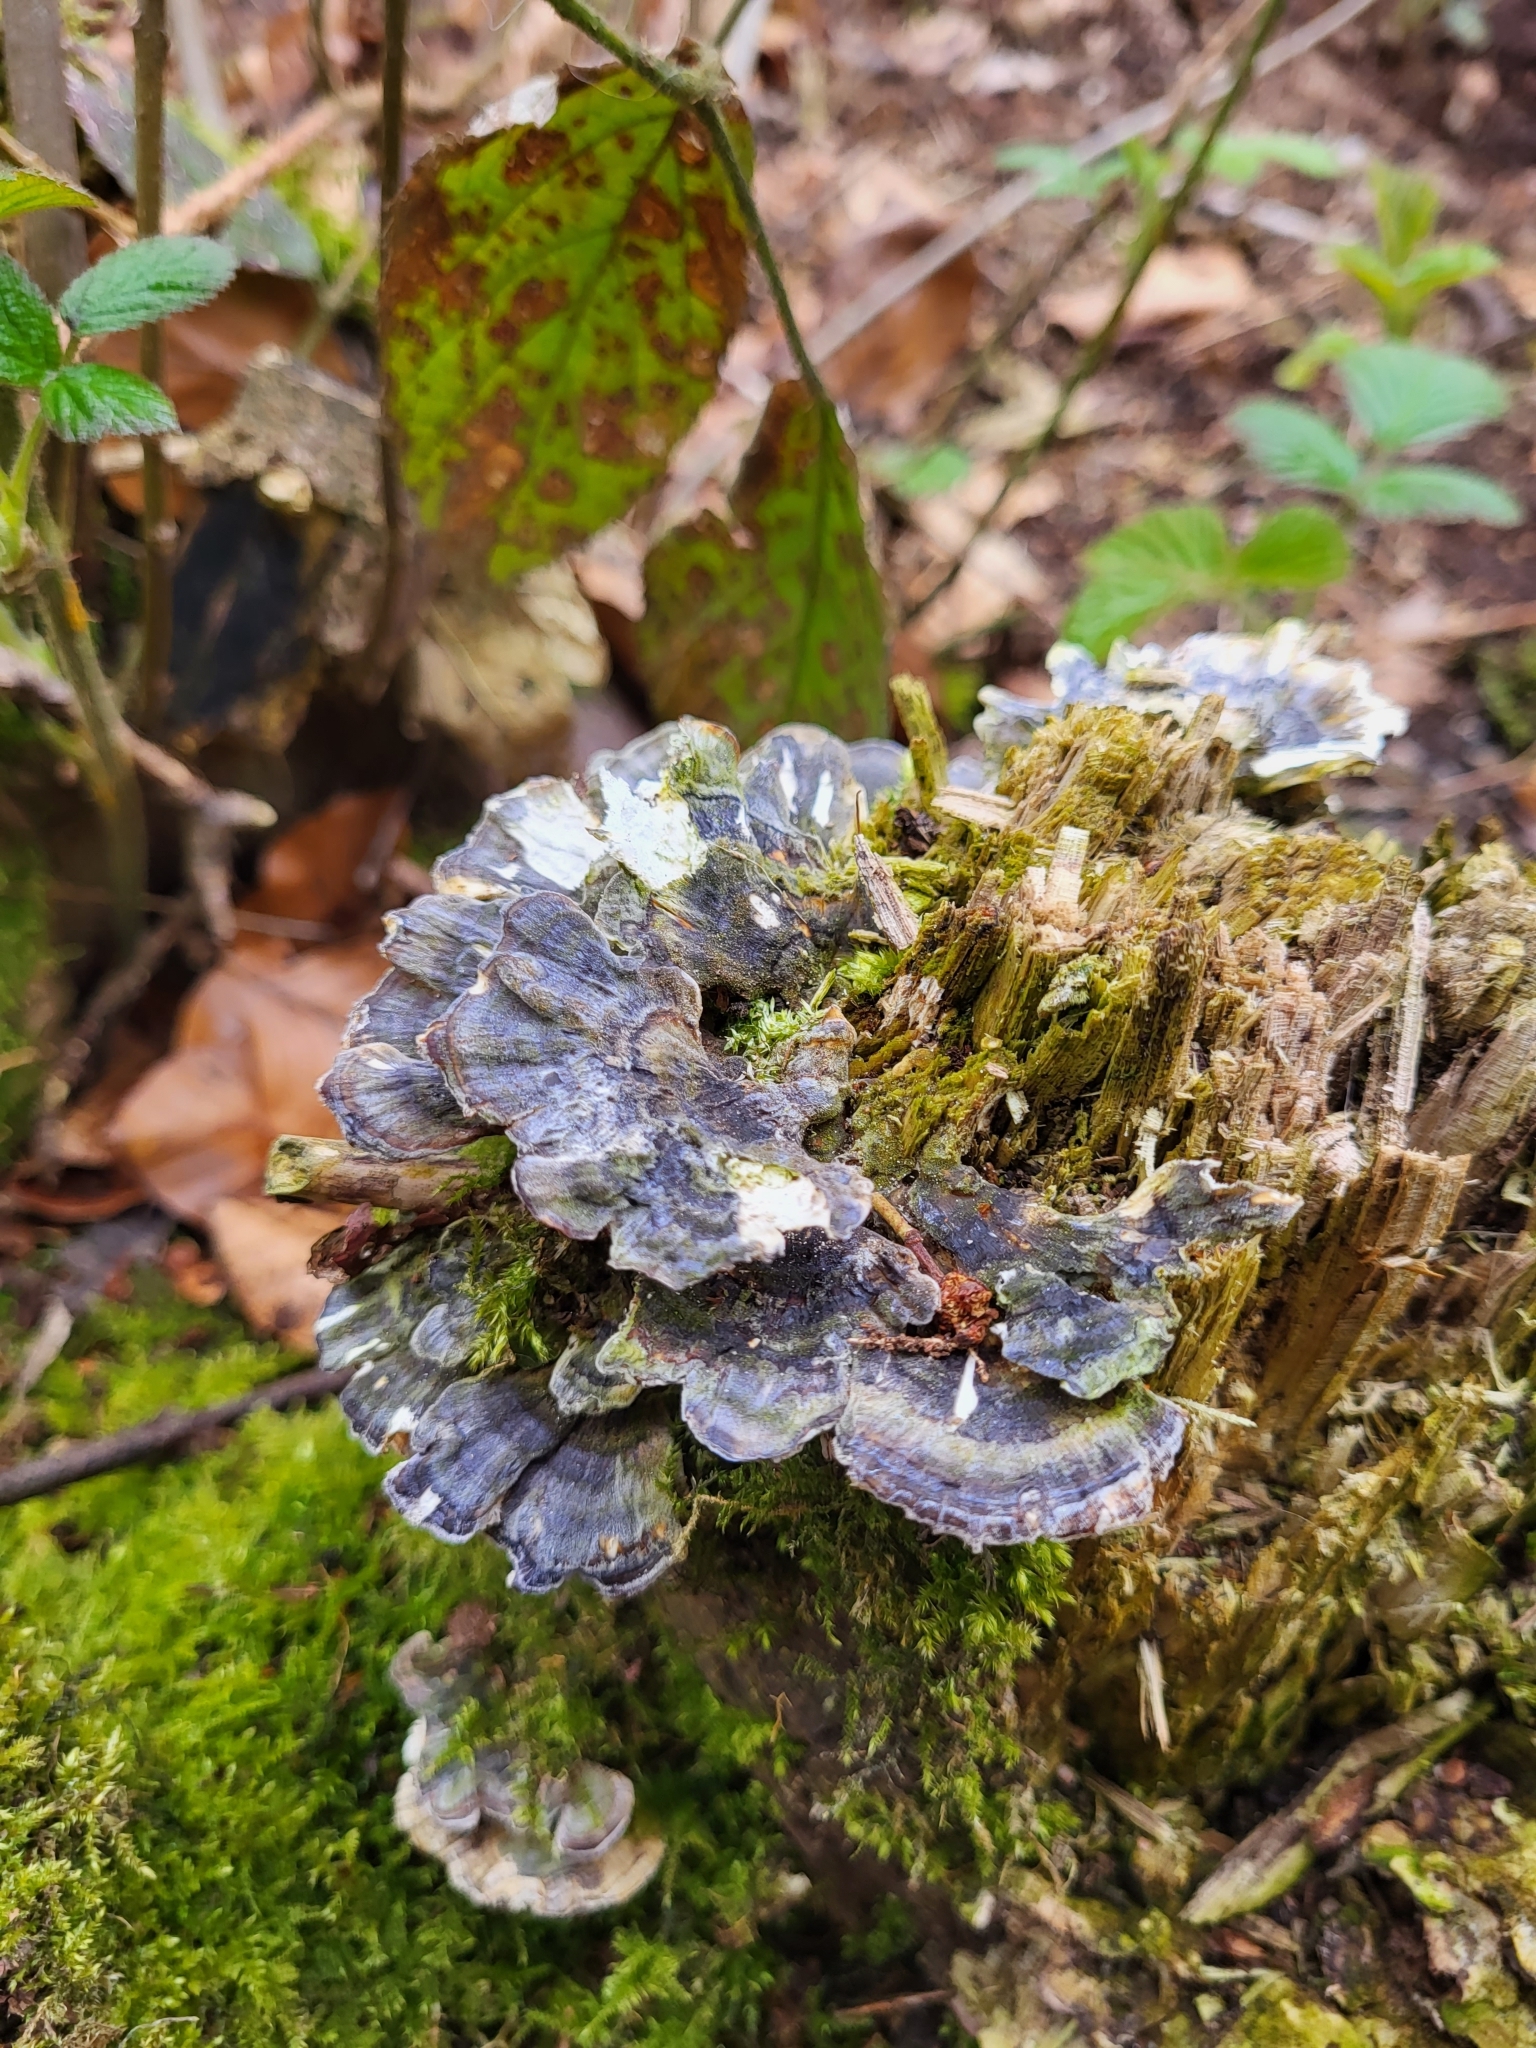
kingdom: Fungi
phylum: Basidiomycota
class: Agaricomycetes
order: Polyporales
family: Polyporaceae
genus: Trametes
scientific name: Trametes versicolor
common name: Turkeytail
